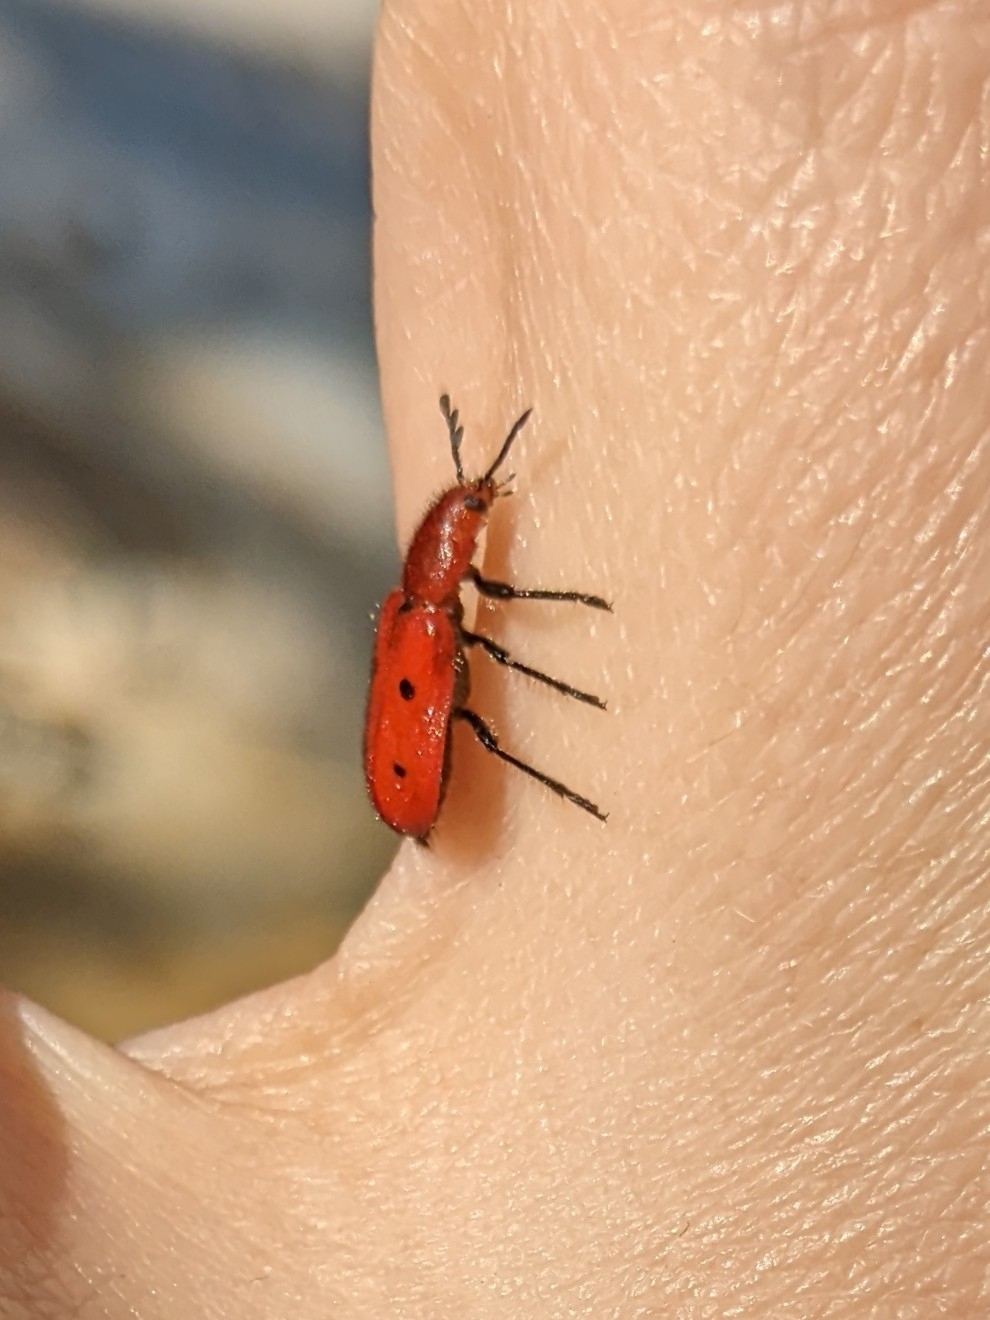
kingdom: Animalia
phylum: Arthropoda
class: Insecta
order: Coleoptera
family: Cleridae
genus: Pelonides
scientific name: Pelonides
